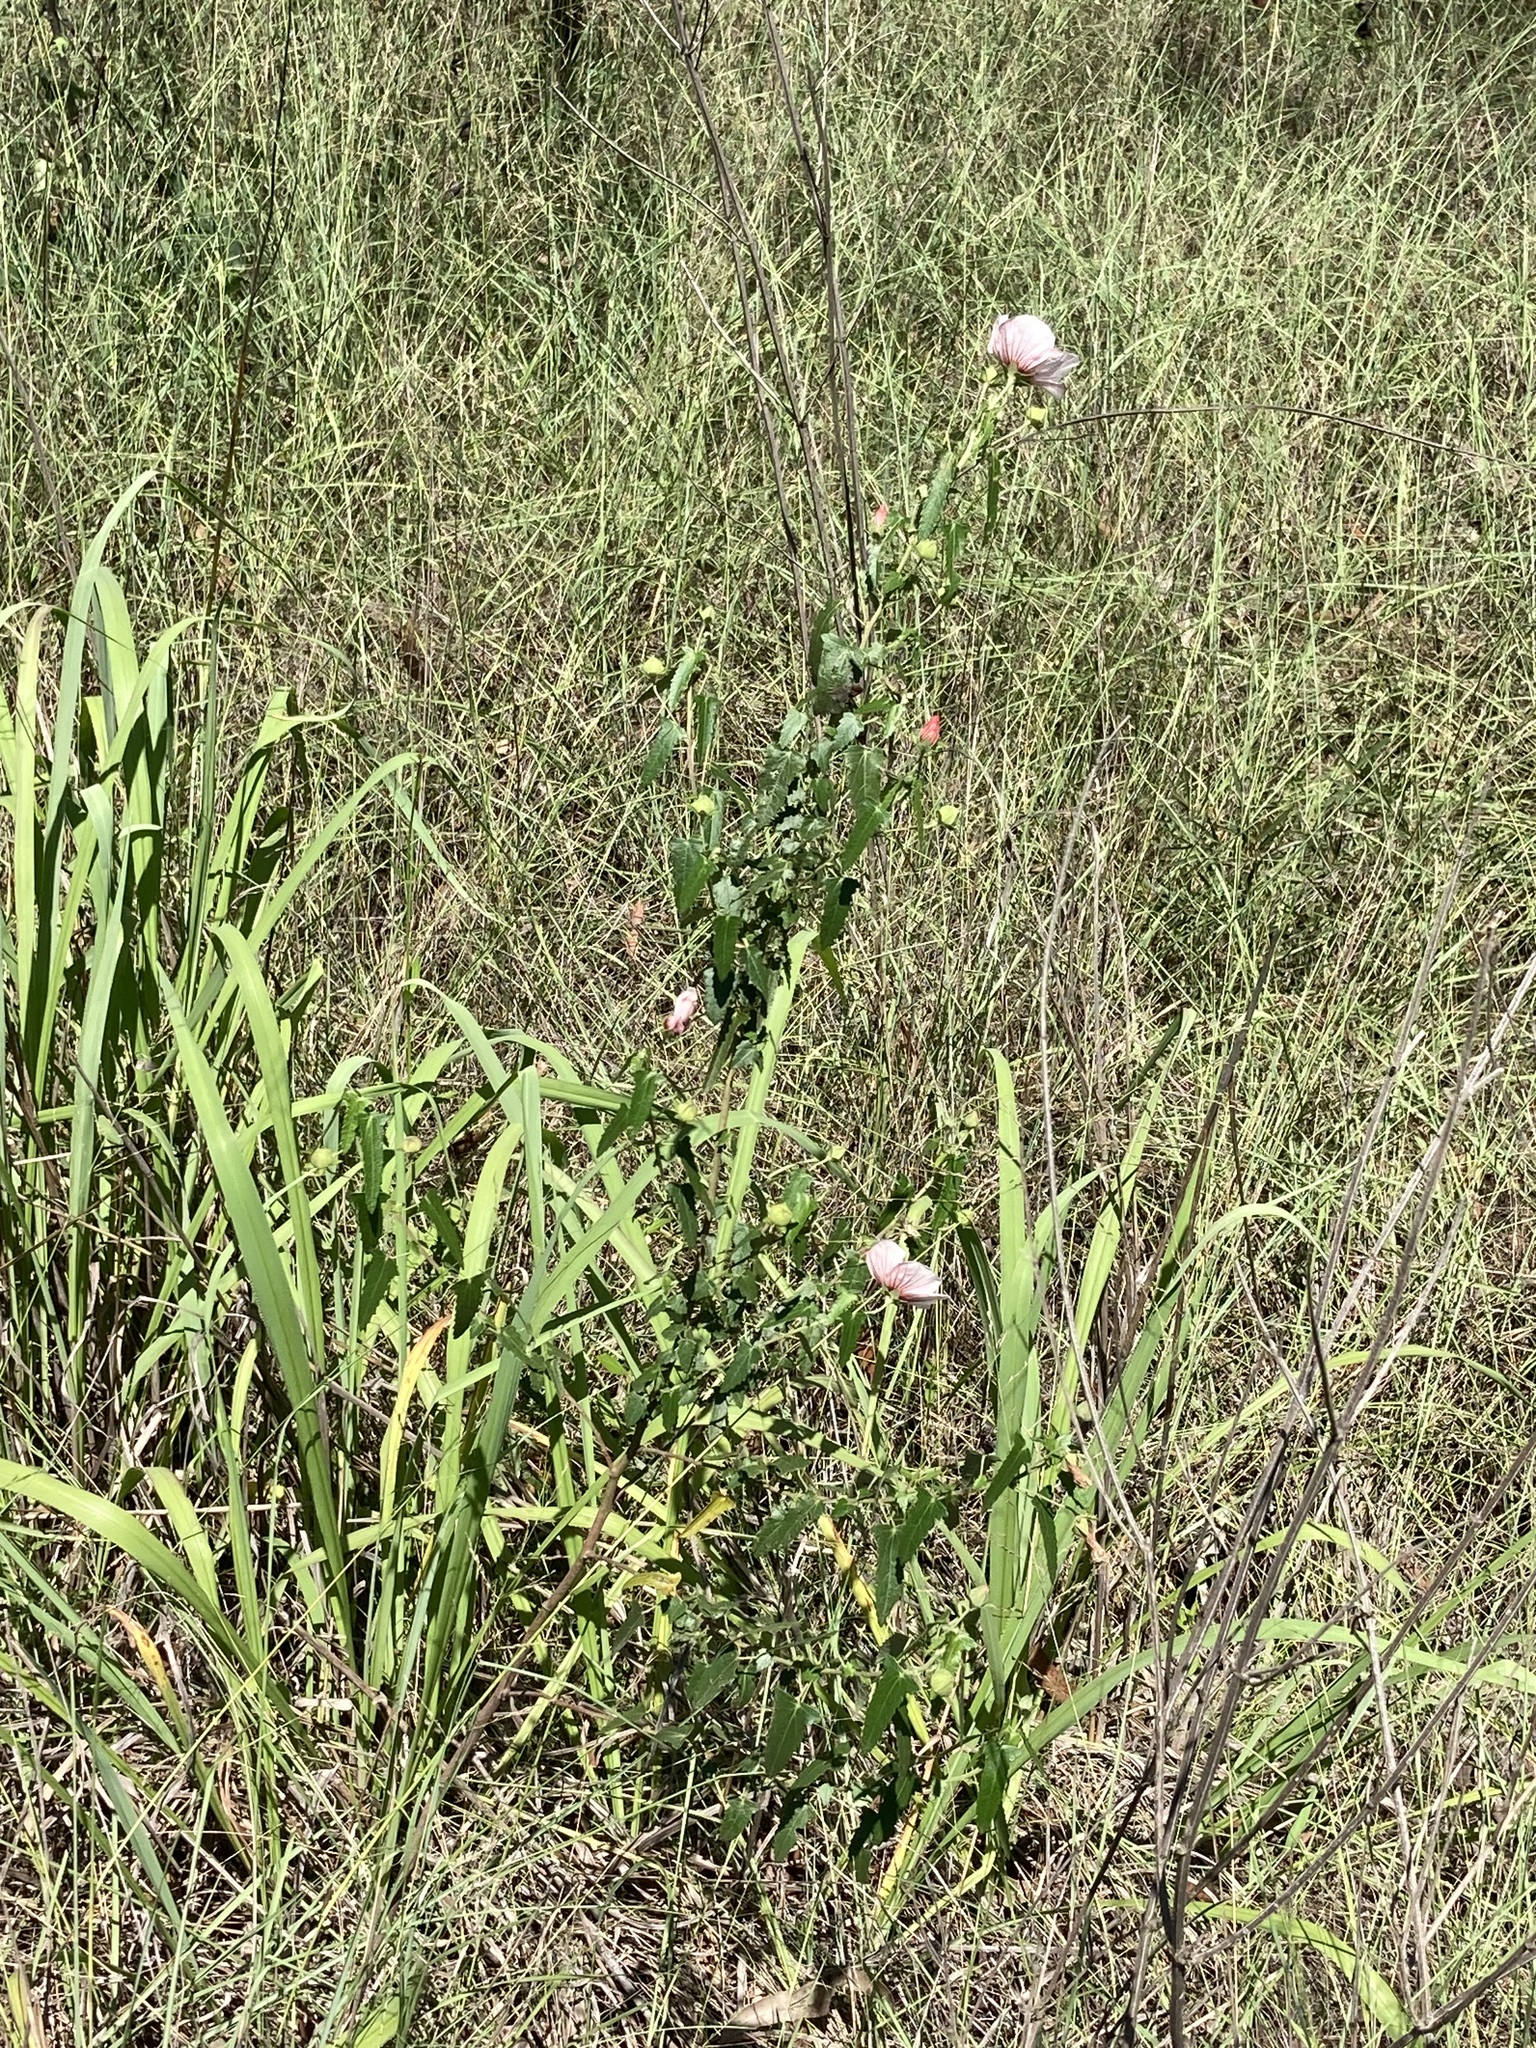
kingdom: Plantae
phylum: Tracheophyta
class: Magnoliopsida
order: Malvales
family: Malvaceae
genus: Pavonia
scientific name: Pavonia hastata
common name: Spearleaf swampmallow
